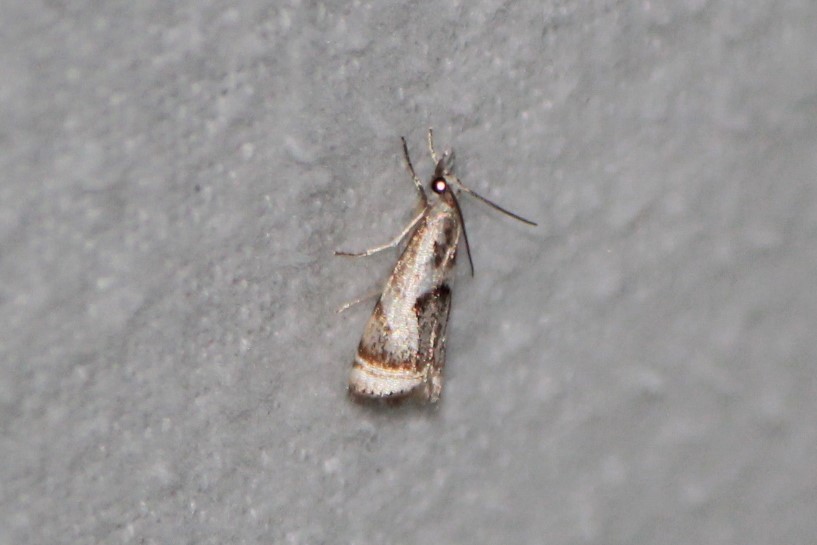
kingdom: Animalia
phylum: Arthropoda
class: Insecta
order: Lepidoptera
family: Crambidae
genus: Microcrambus
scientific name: Microcrambus elegans
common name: Elegant grass-veneer
